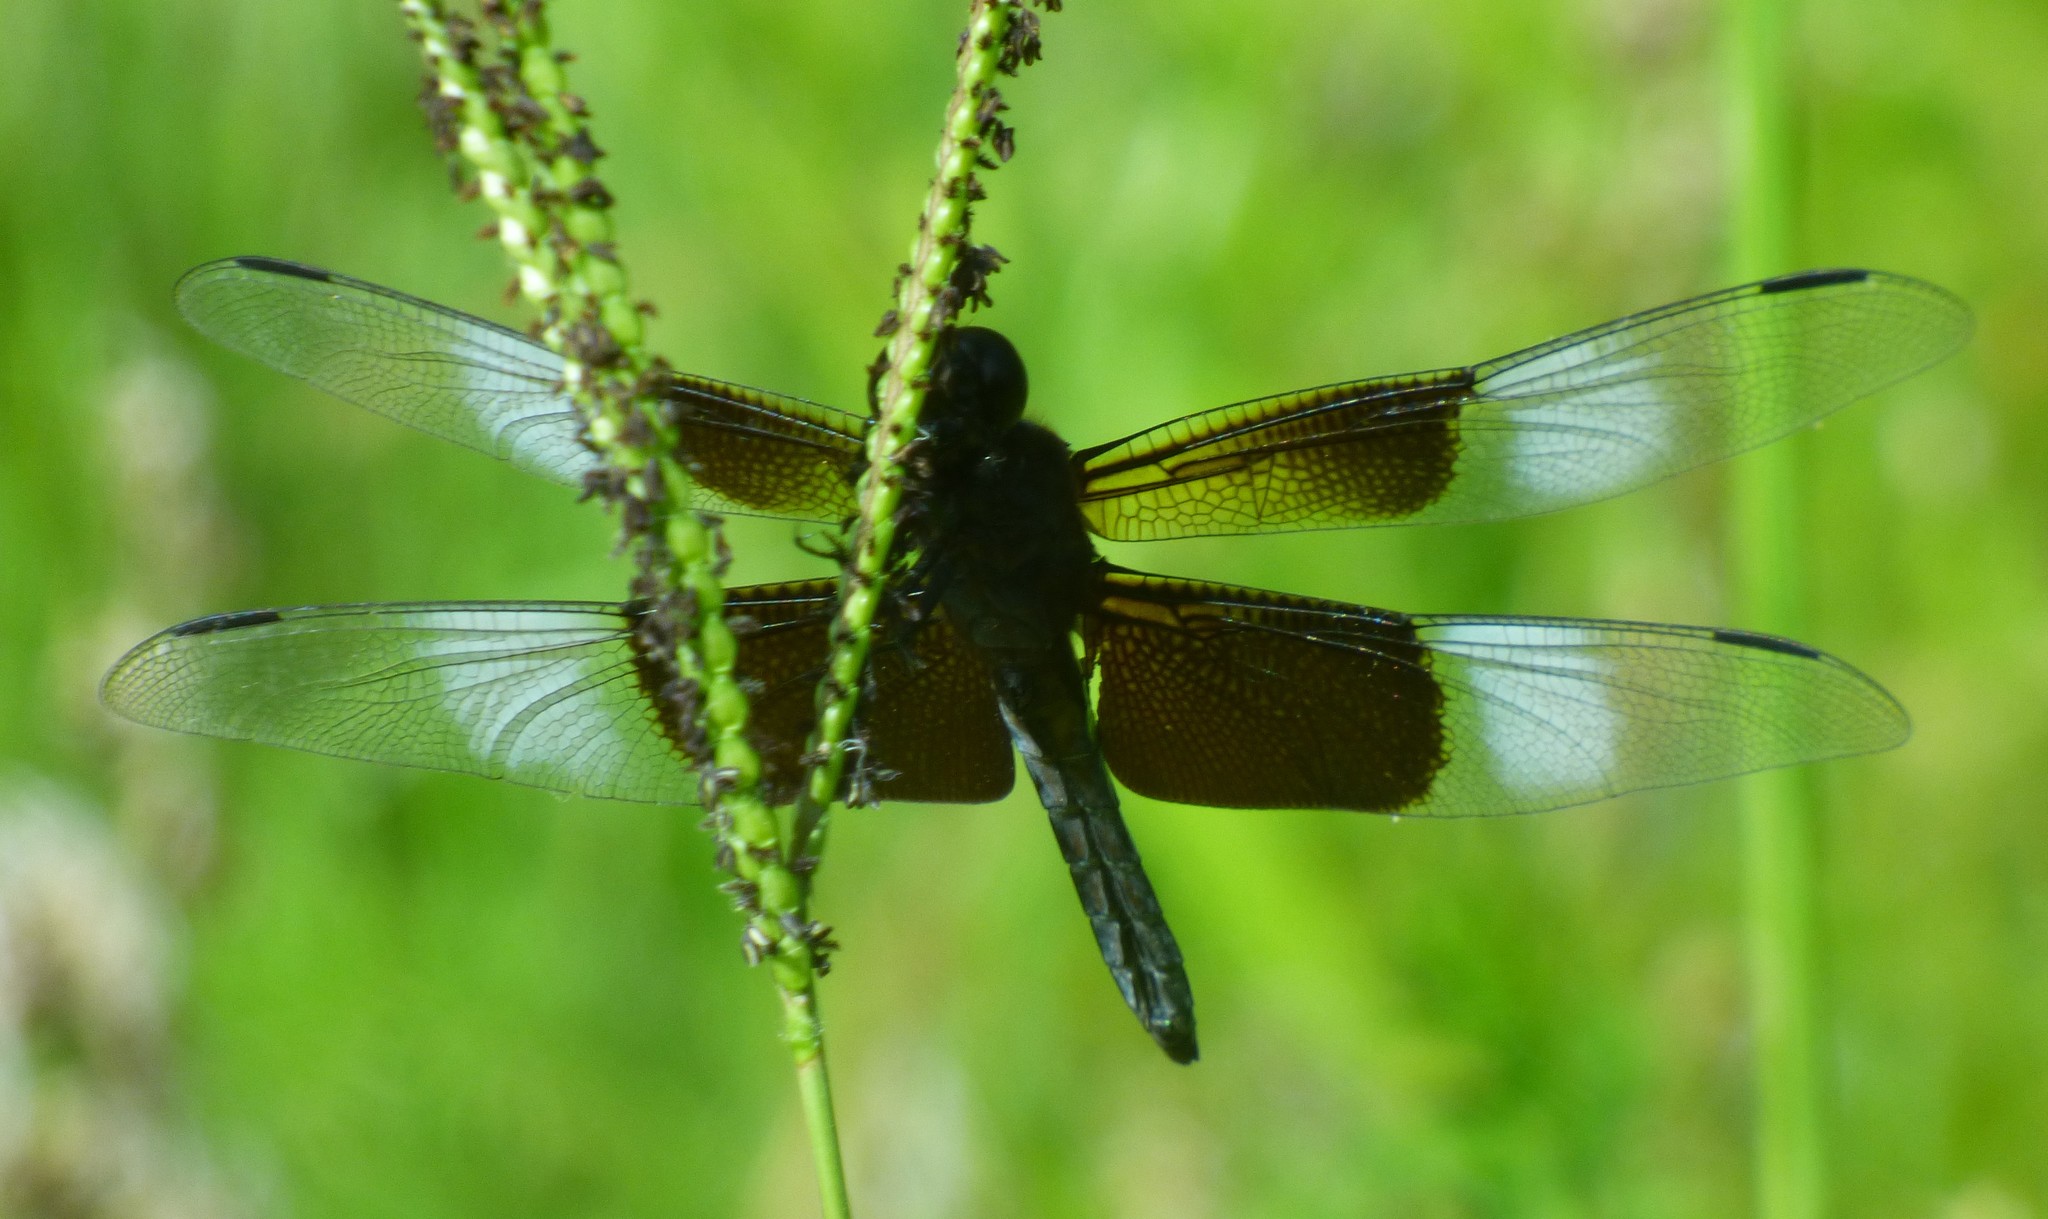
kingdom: Animalia
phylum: Arthropoda
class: Insecta
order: Odonata
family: Libellulidae
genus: Libellula
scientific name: Libellula luctuosa
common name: Widow skimmer
